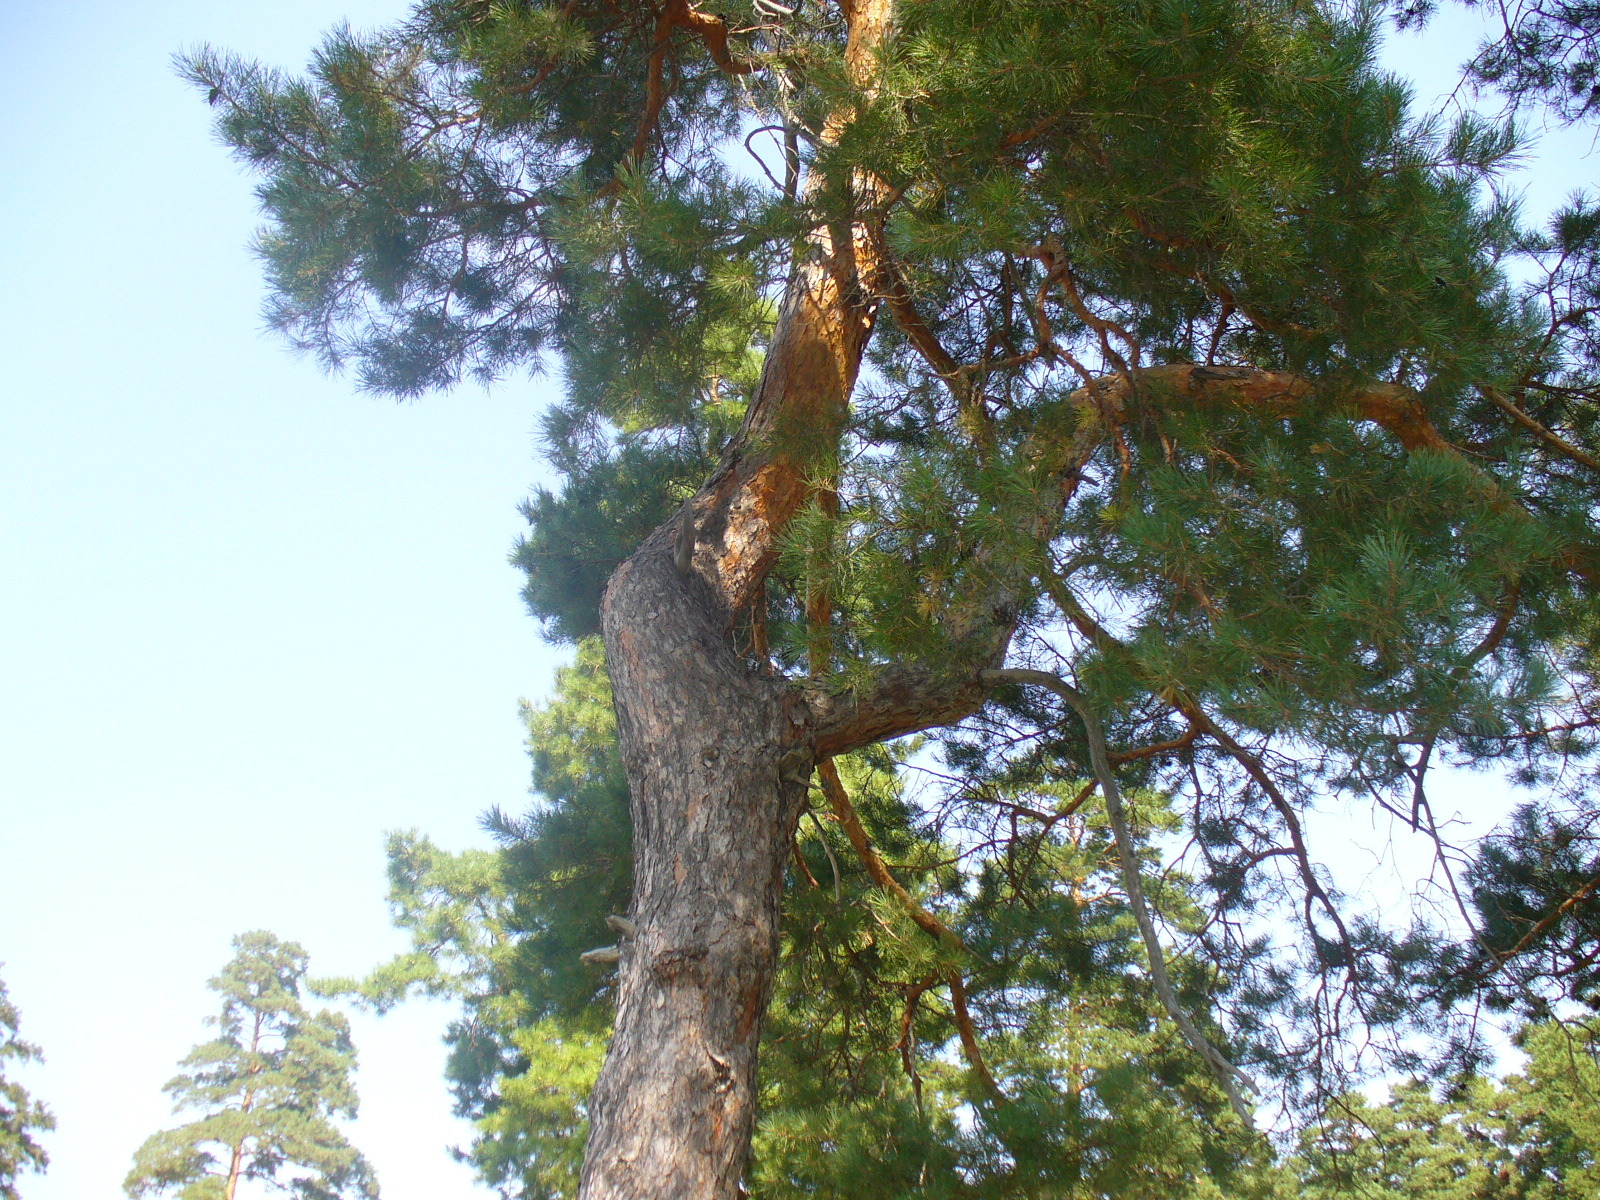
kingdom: Plantae
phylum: Tracheophyta
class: Pinopsida
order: Pinales
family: Pinaceae
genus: Pinus
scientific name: Pinus sylvestris
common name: Scots pine
